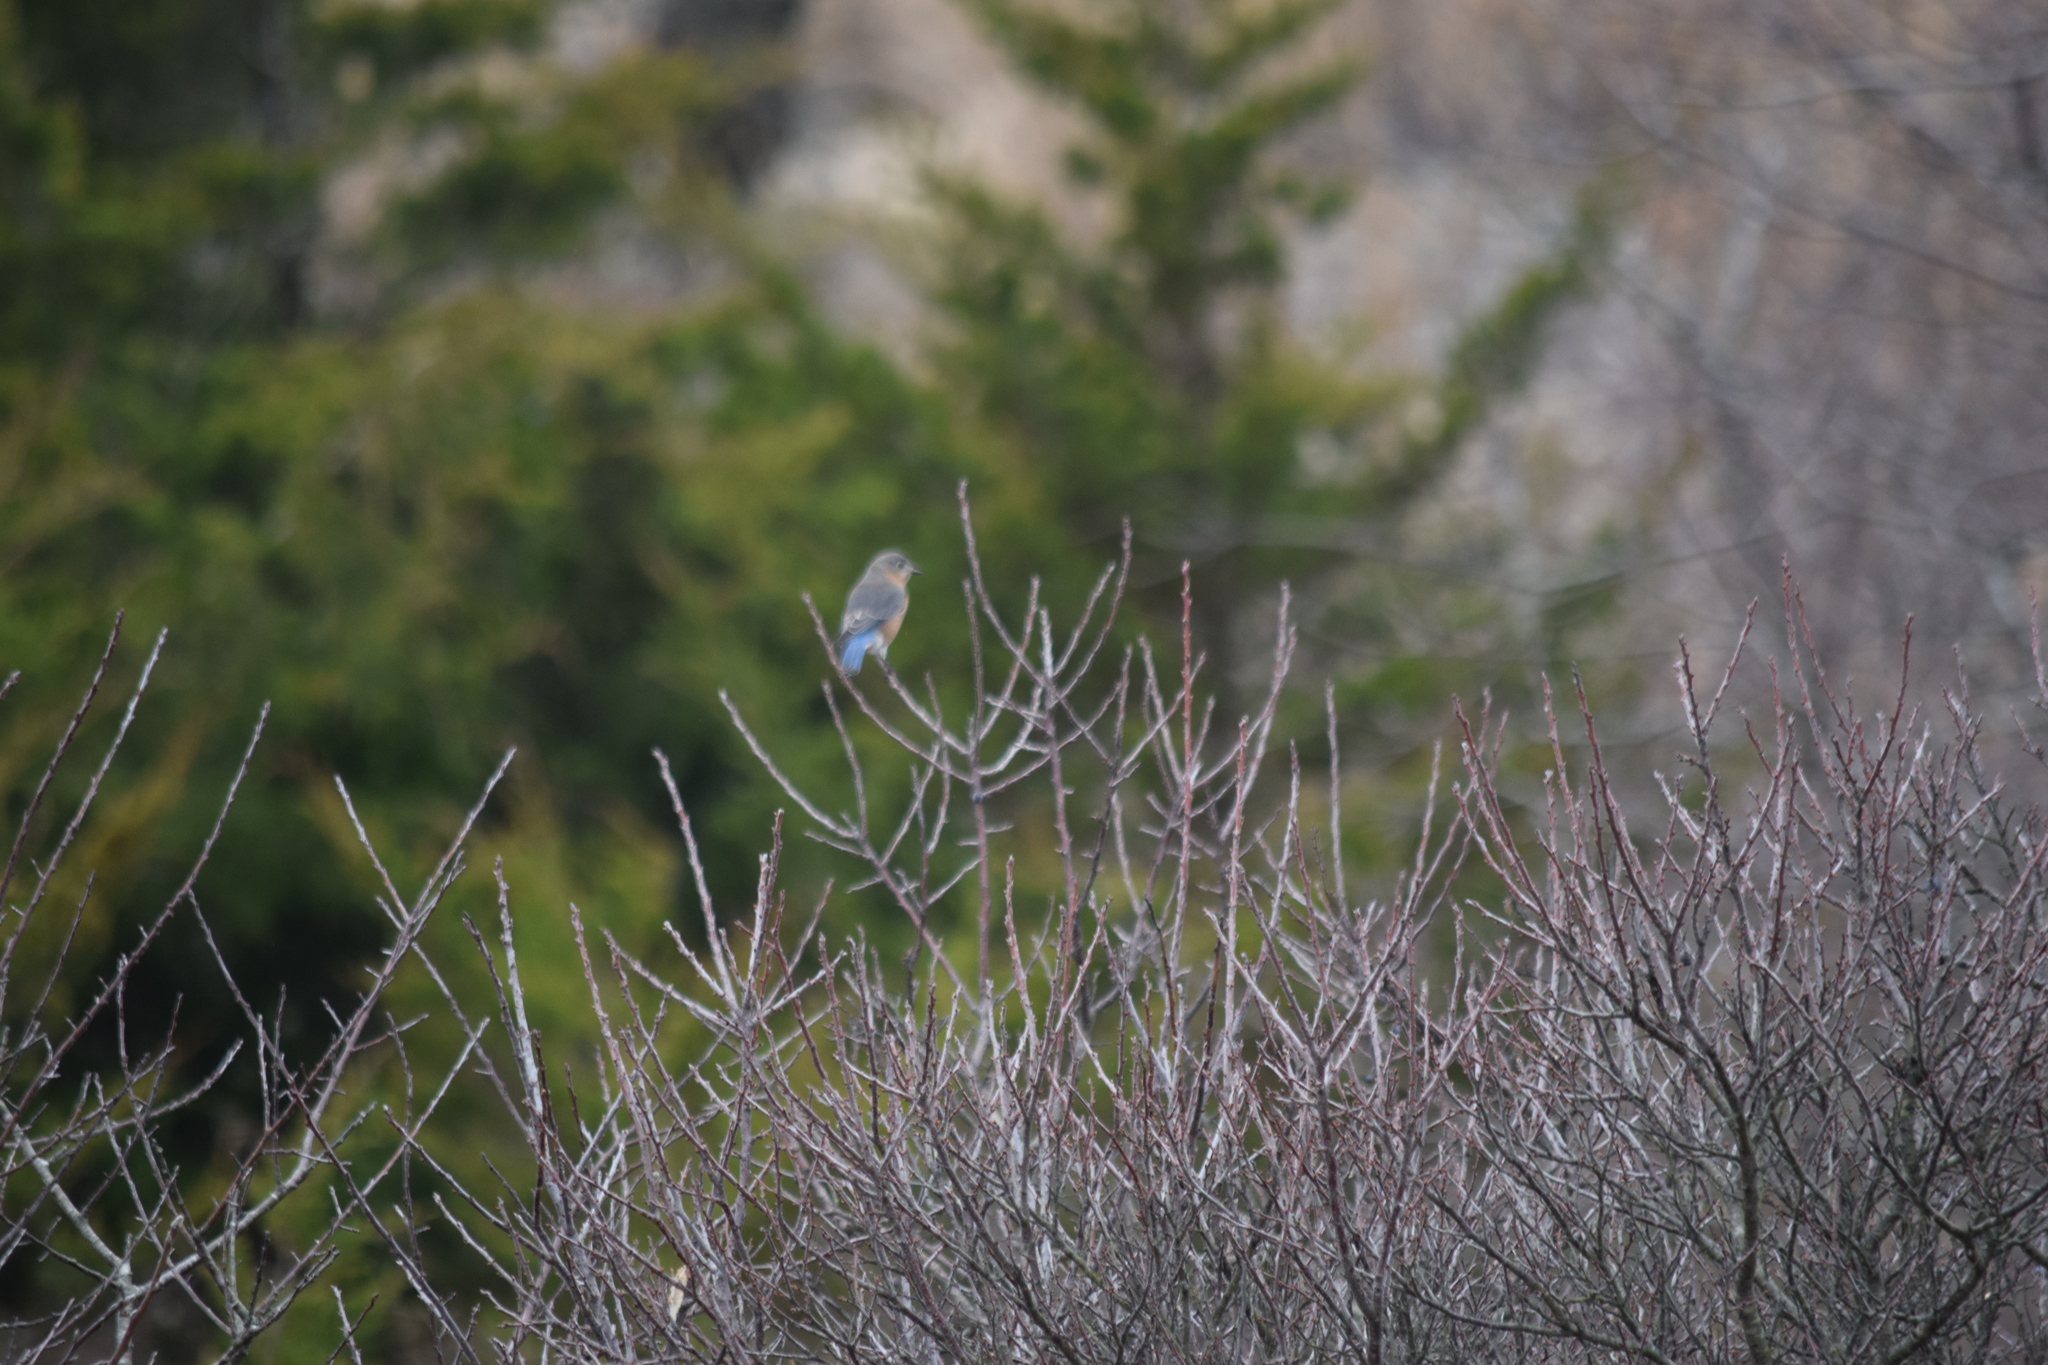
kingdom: Animalia
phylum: Chordata
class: Aves
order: Passeriformes
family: Turdidae
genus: Sialia
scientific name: Sialia sialis
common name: Eastern bluebird
